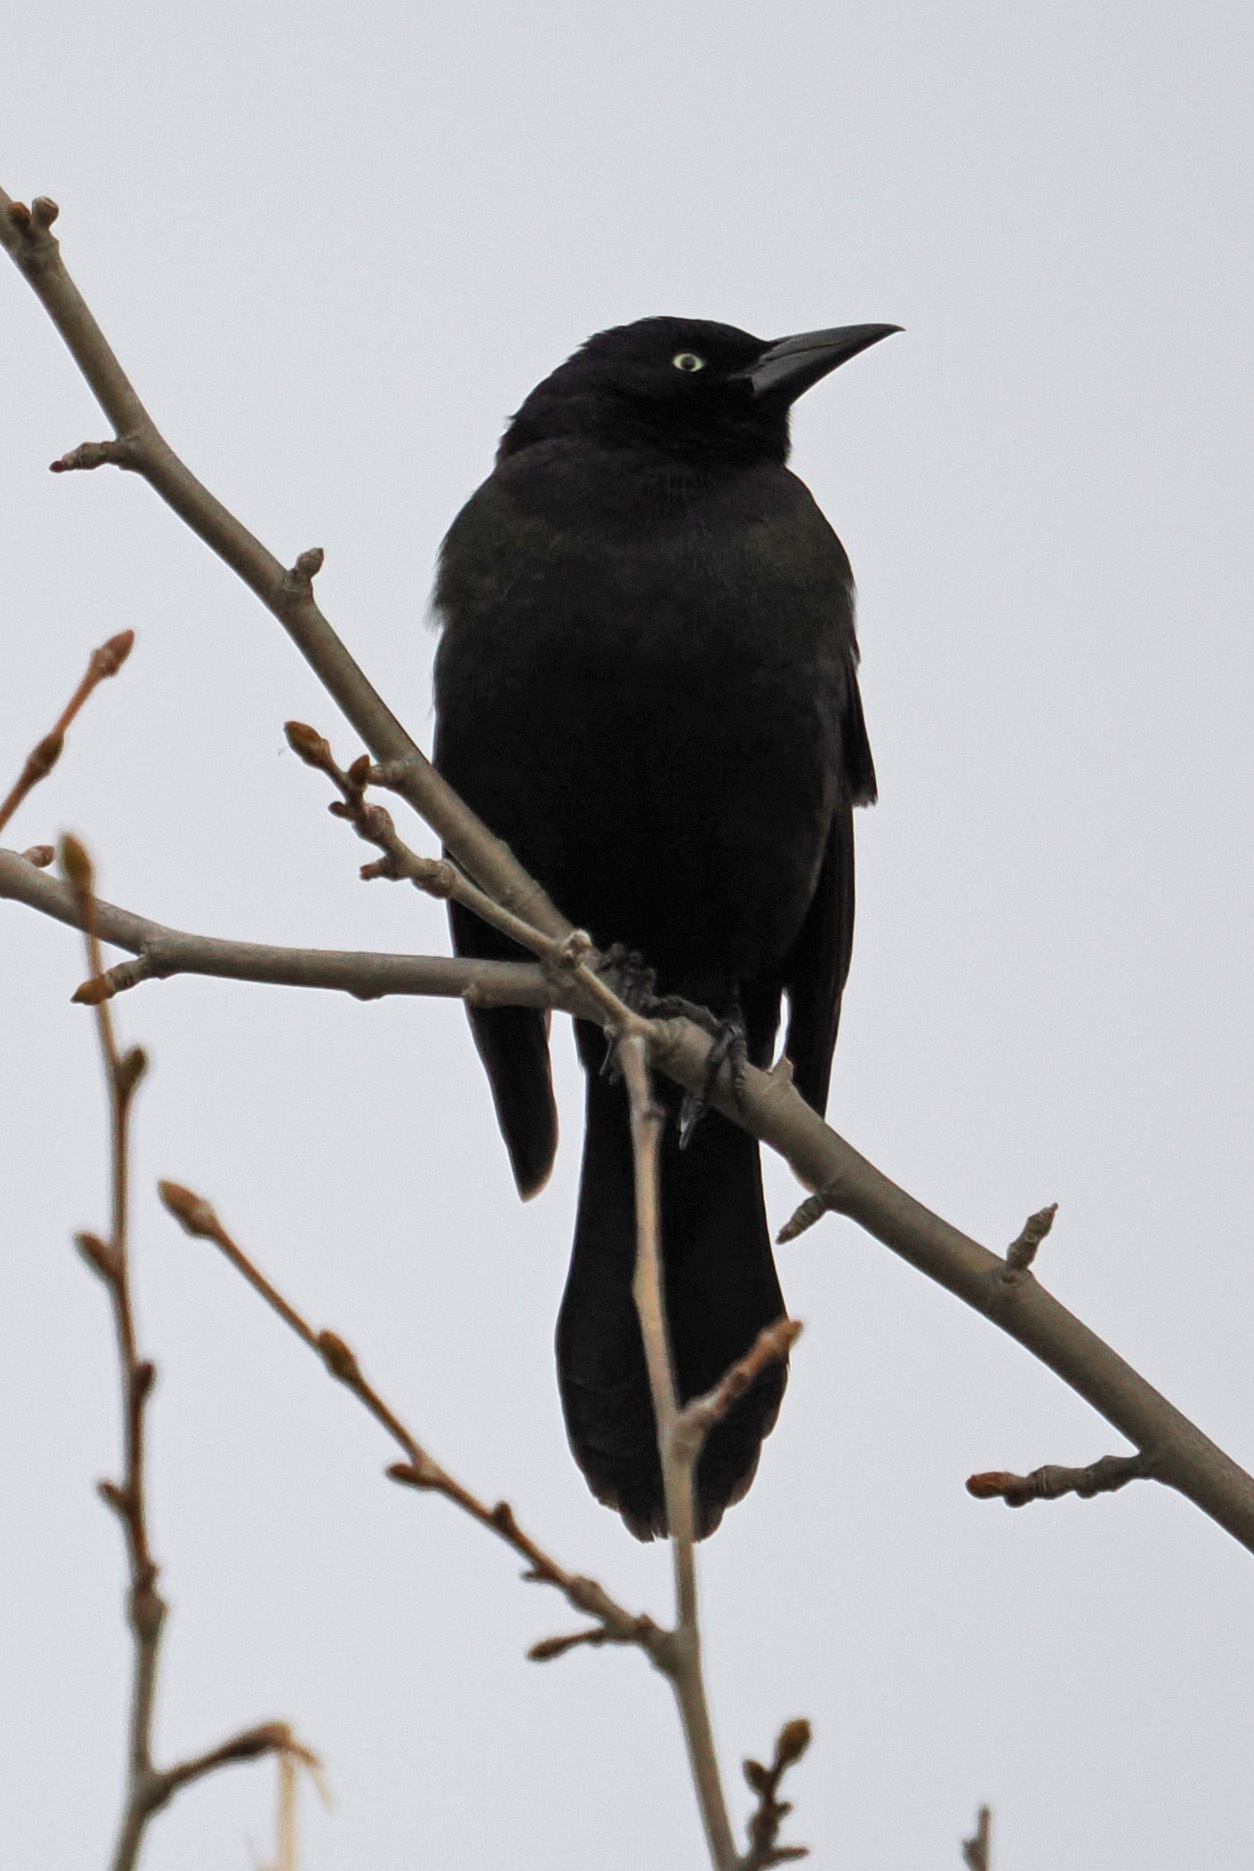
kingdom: Animalia
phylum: Chordata
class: Aves
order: Passeriformes
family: Icteridae
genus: Quiscalus
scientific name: Quiscalus quiscula
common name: Common grackle
